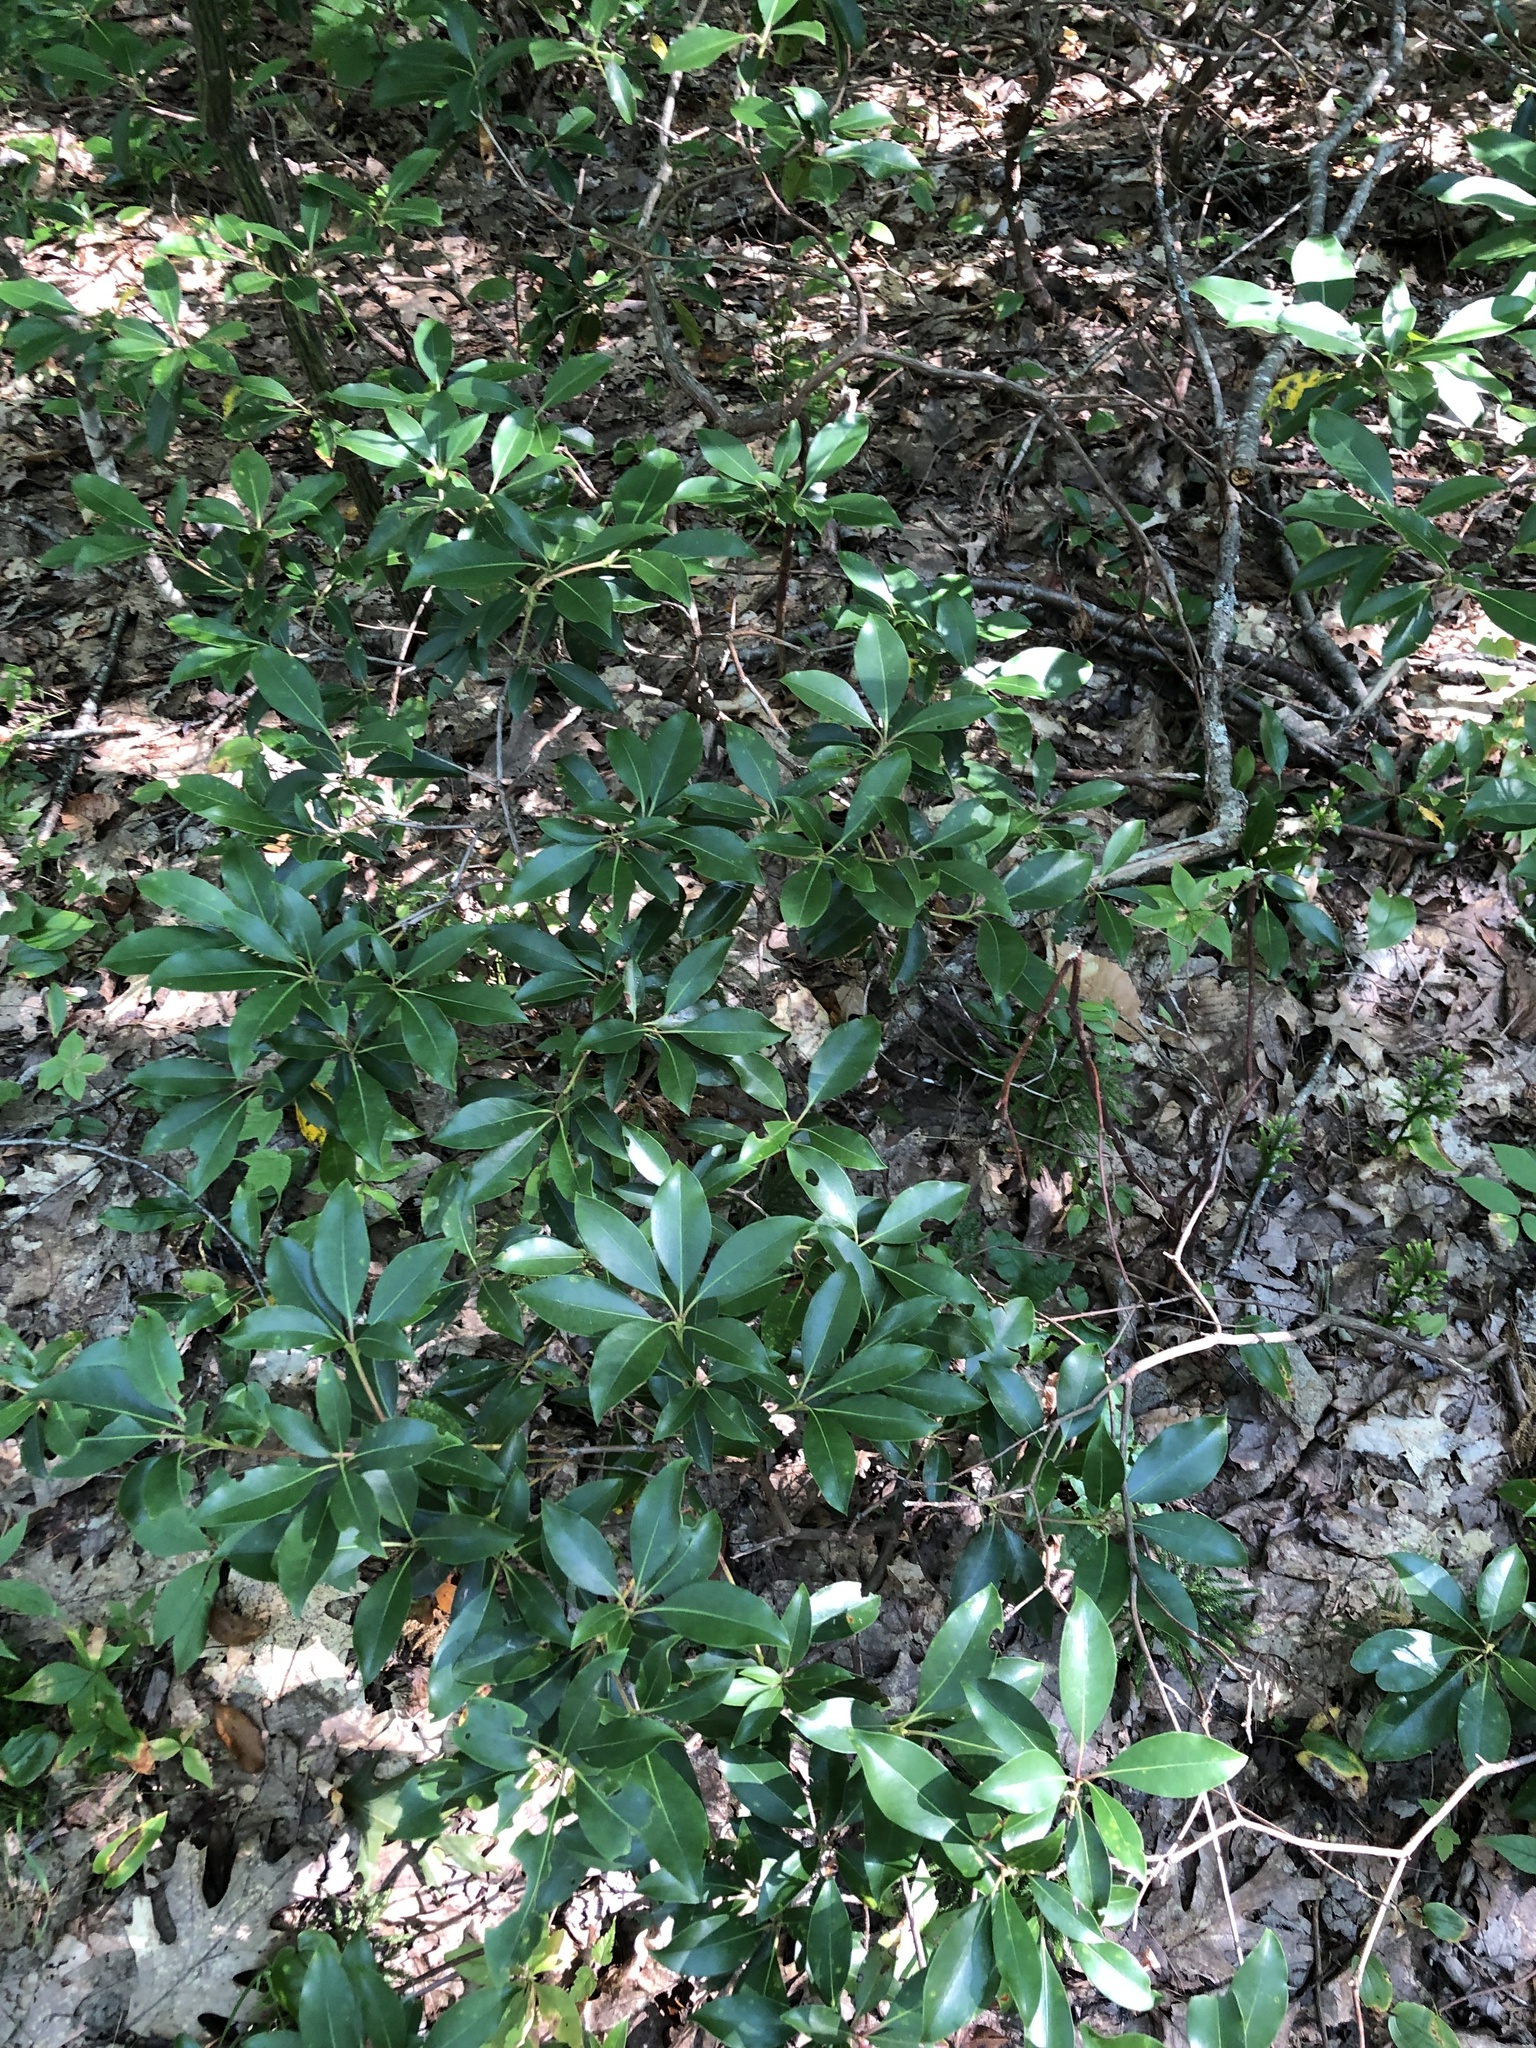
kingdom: Plantae
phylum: Tracheophyta
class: Magnoliopsida
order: Ericales
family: Ericaceae
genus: Kalmia
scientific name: Kalmia latifolia
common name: Mountain-laurel
